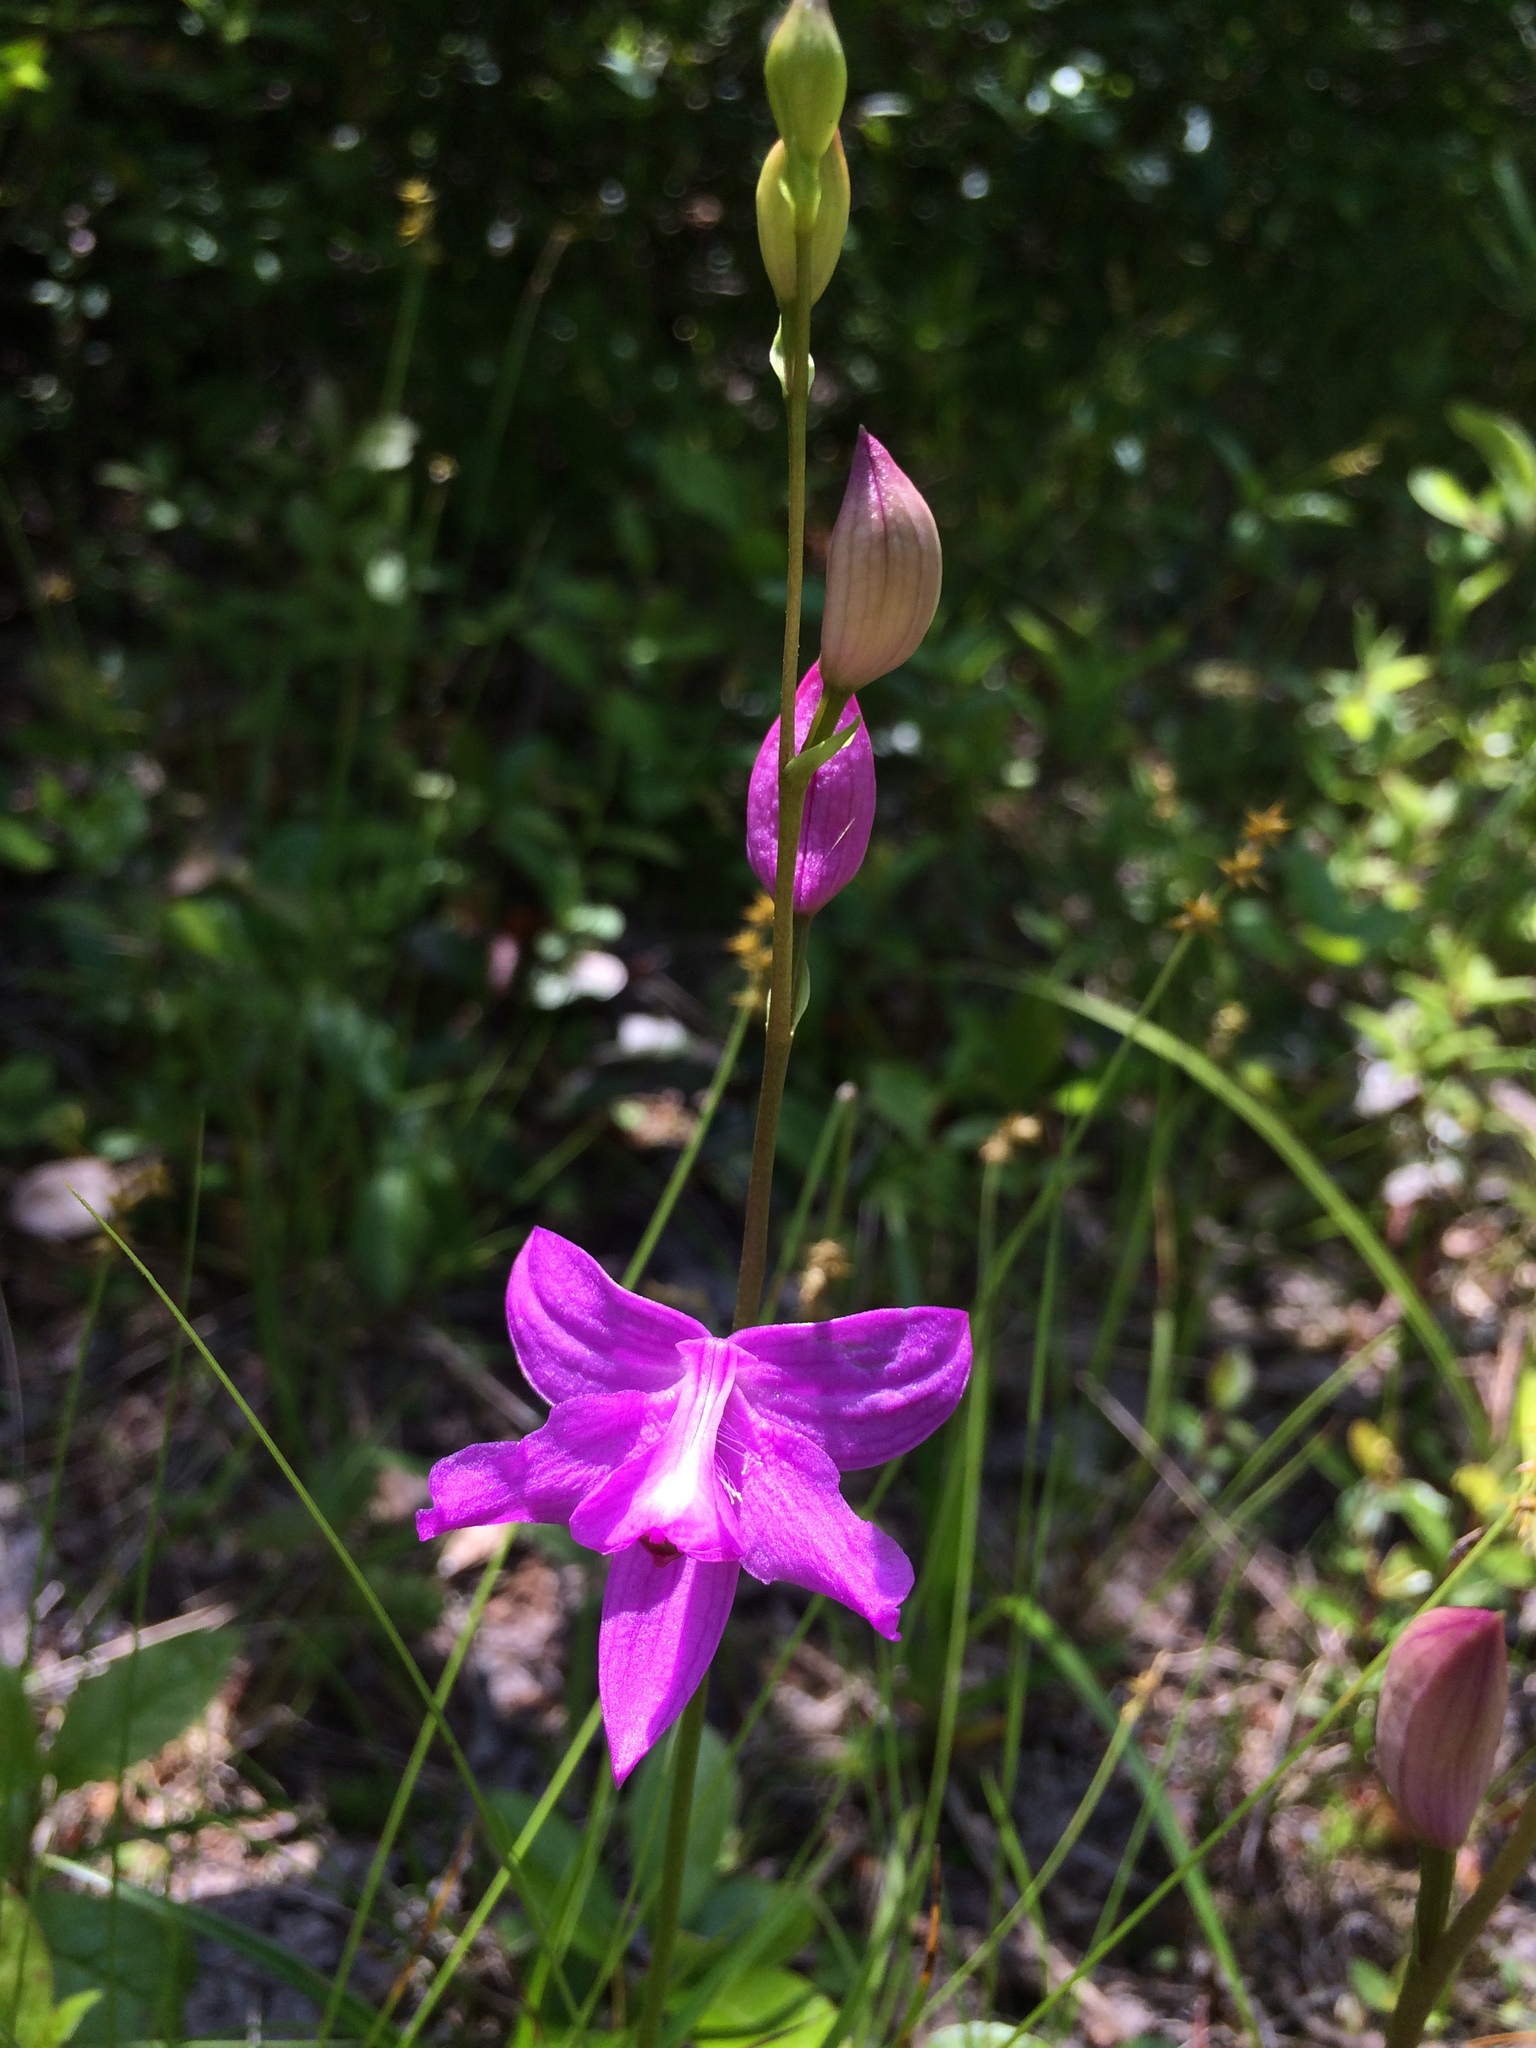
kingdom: Plantae
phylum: Tracheophyta
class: Liliopsida
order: Asparagales
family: Orchidaceae
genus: Calopogon
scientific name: Calopogon tuberosus
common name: Grass-pink
